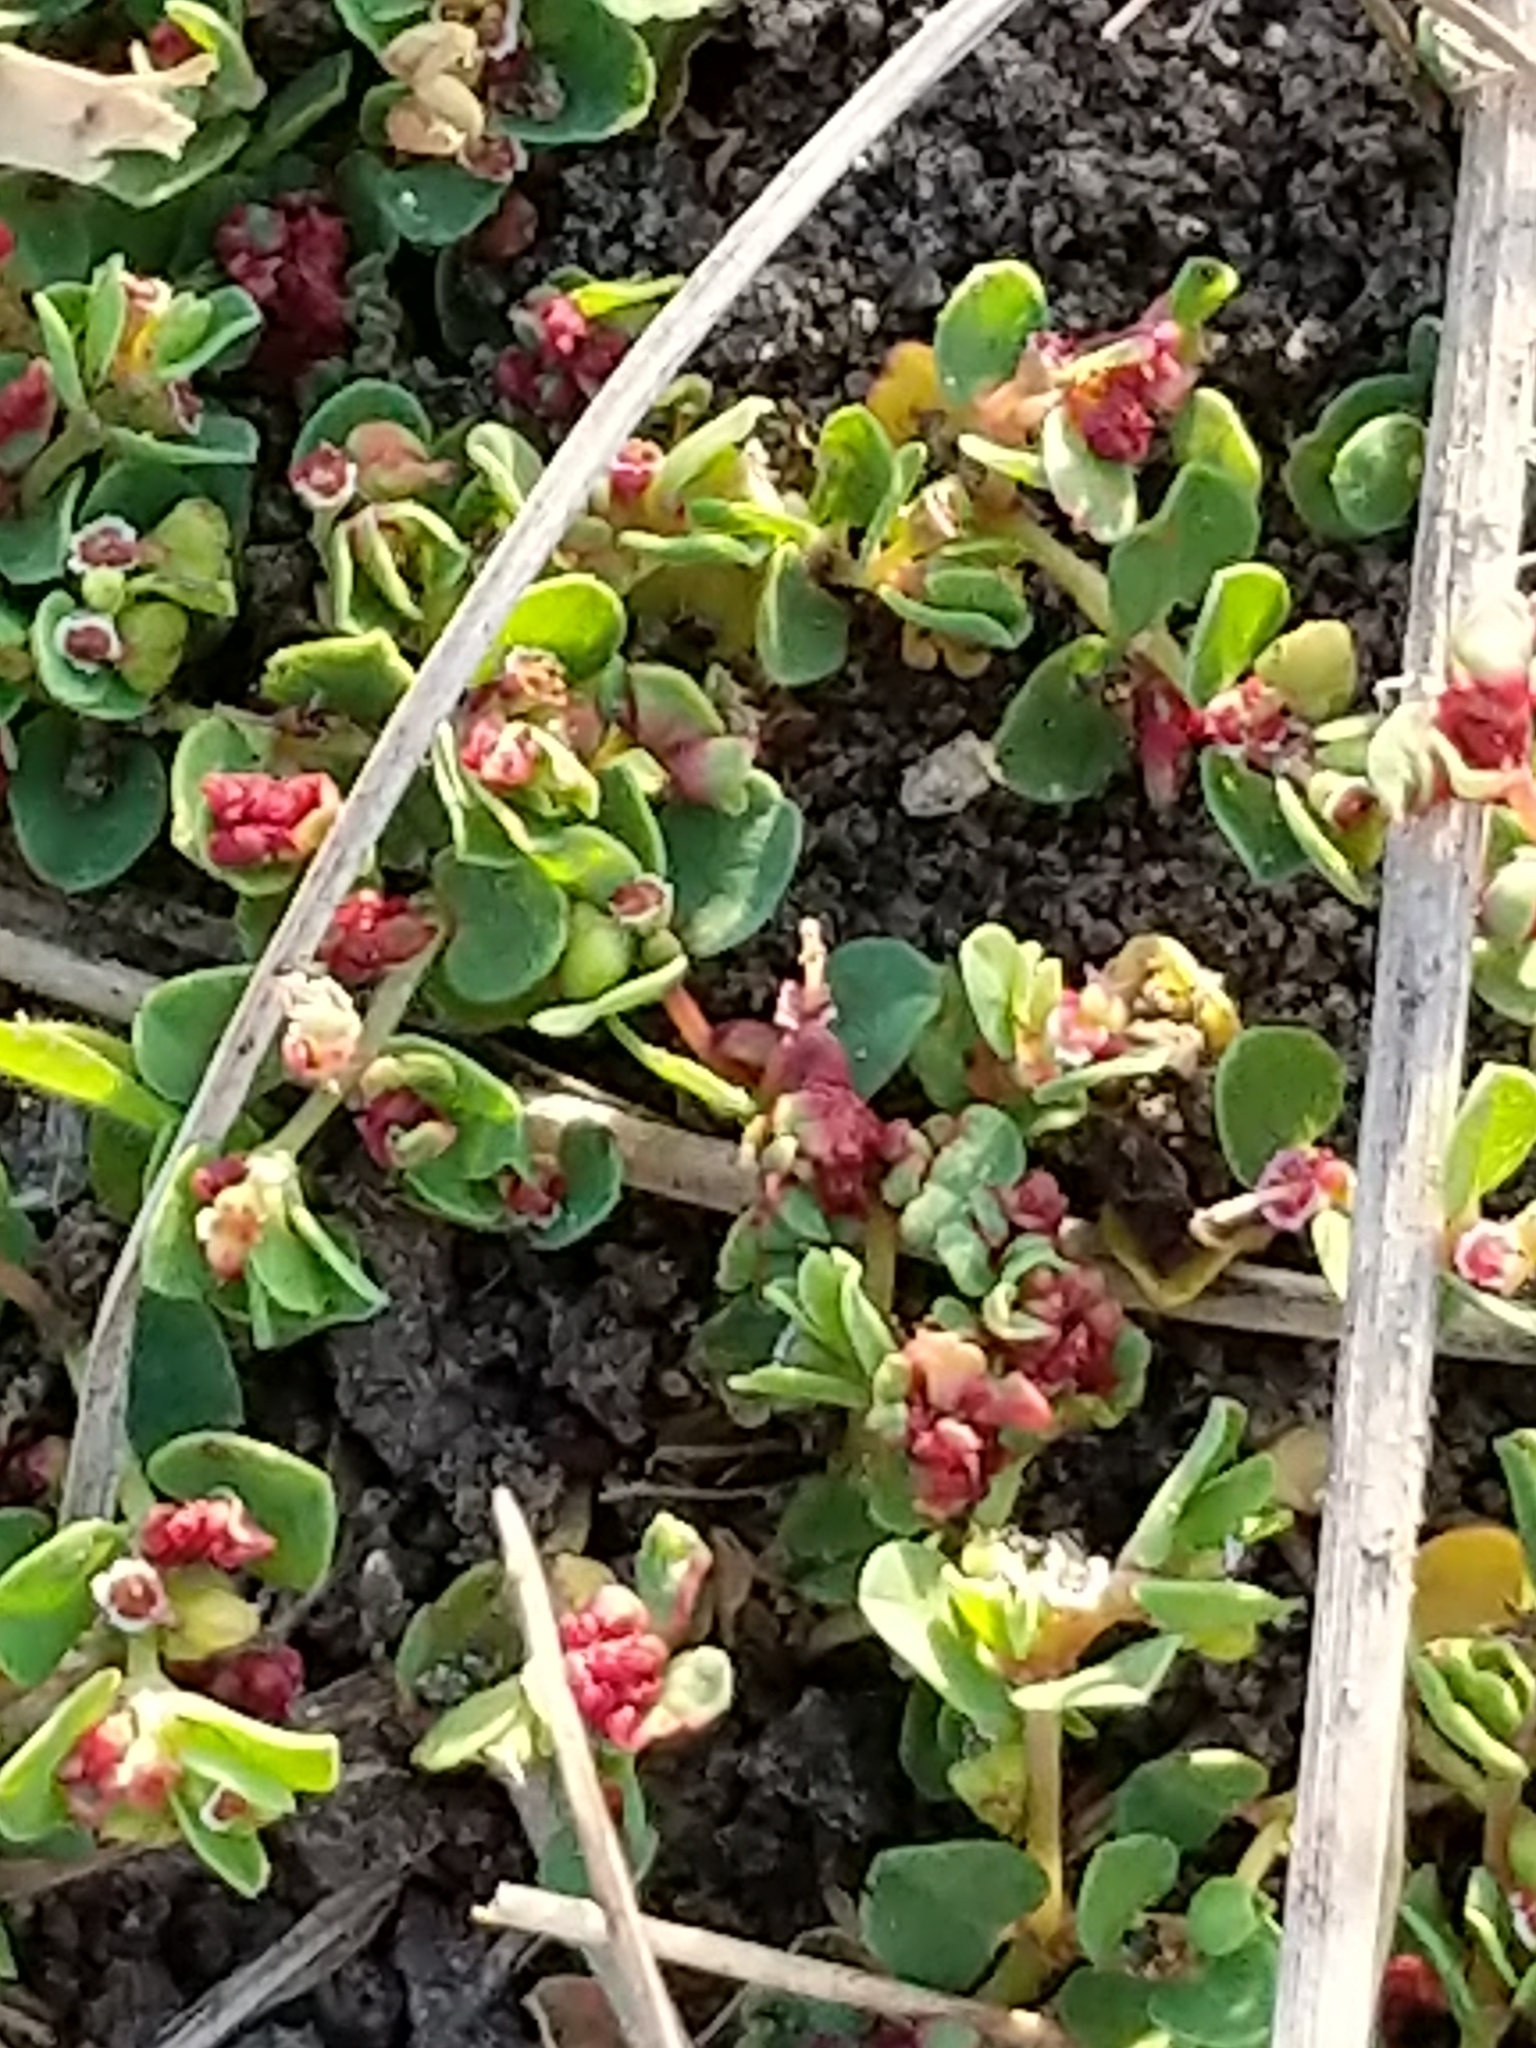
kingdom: Plantae
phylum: Tracheophyta
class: Magnoliopsida
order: Malpighiales
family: Euphorbiaceae
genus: Euphorbia
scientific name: Euphorbia serpens
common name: Matted sandmat
